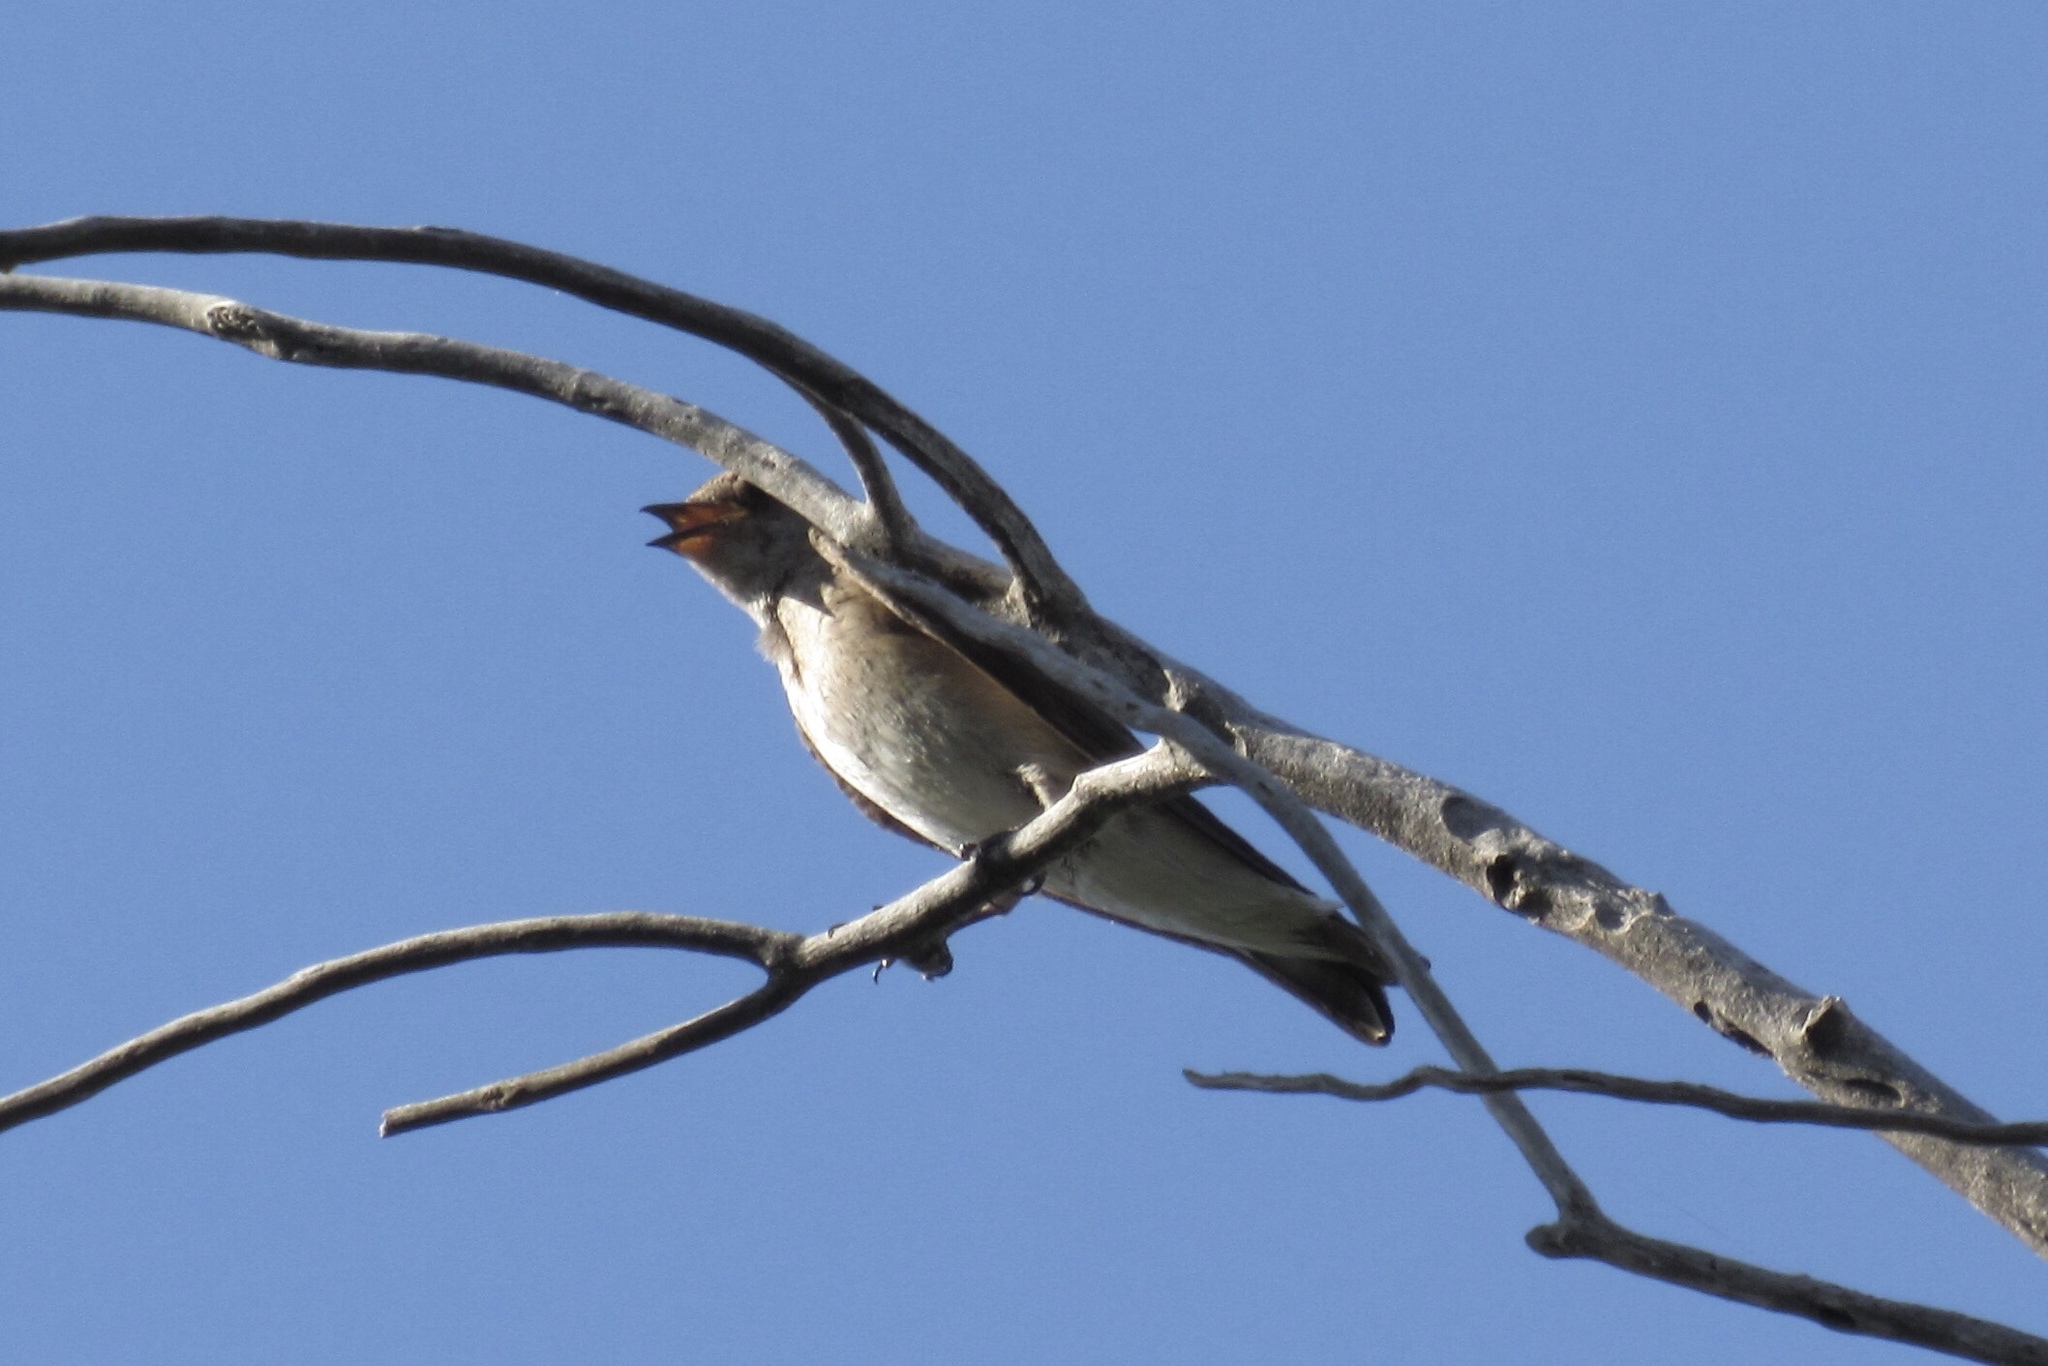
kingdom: Animalia
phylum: Chordata
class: Aves
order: Passeriformes
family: Hirundinidae
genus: Stelgidopteryx
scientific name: Stelgidopteryx serripennis
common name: Northern rough-winged swallow
